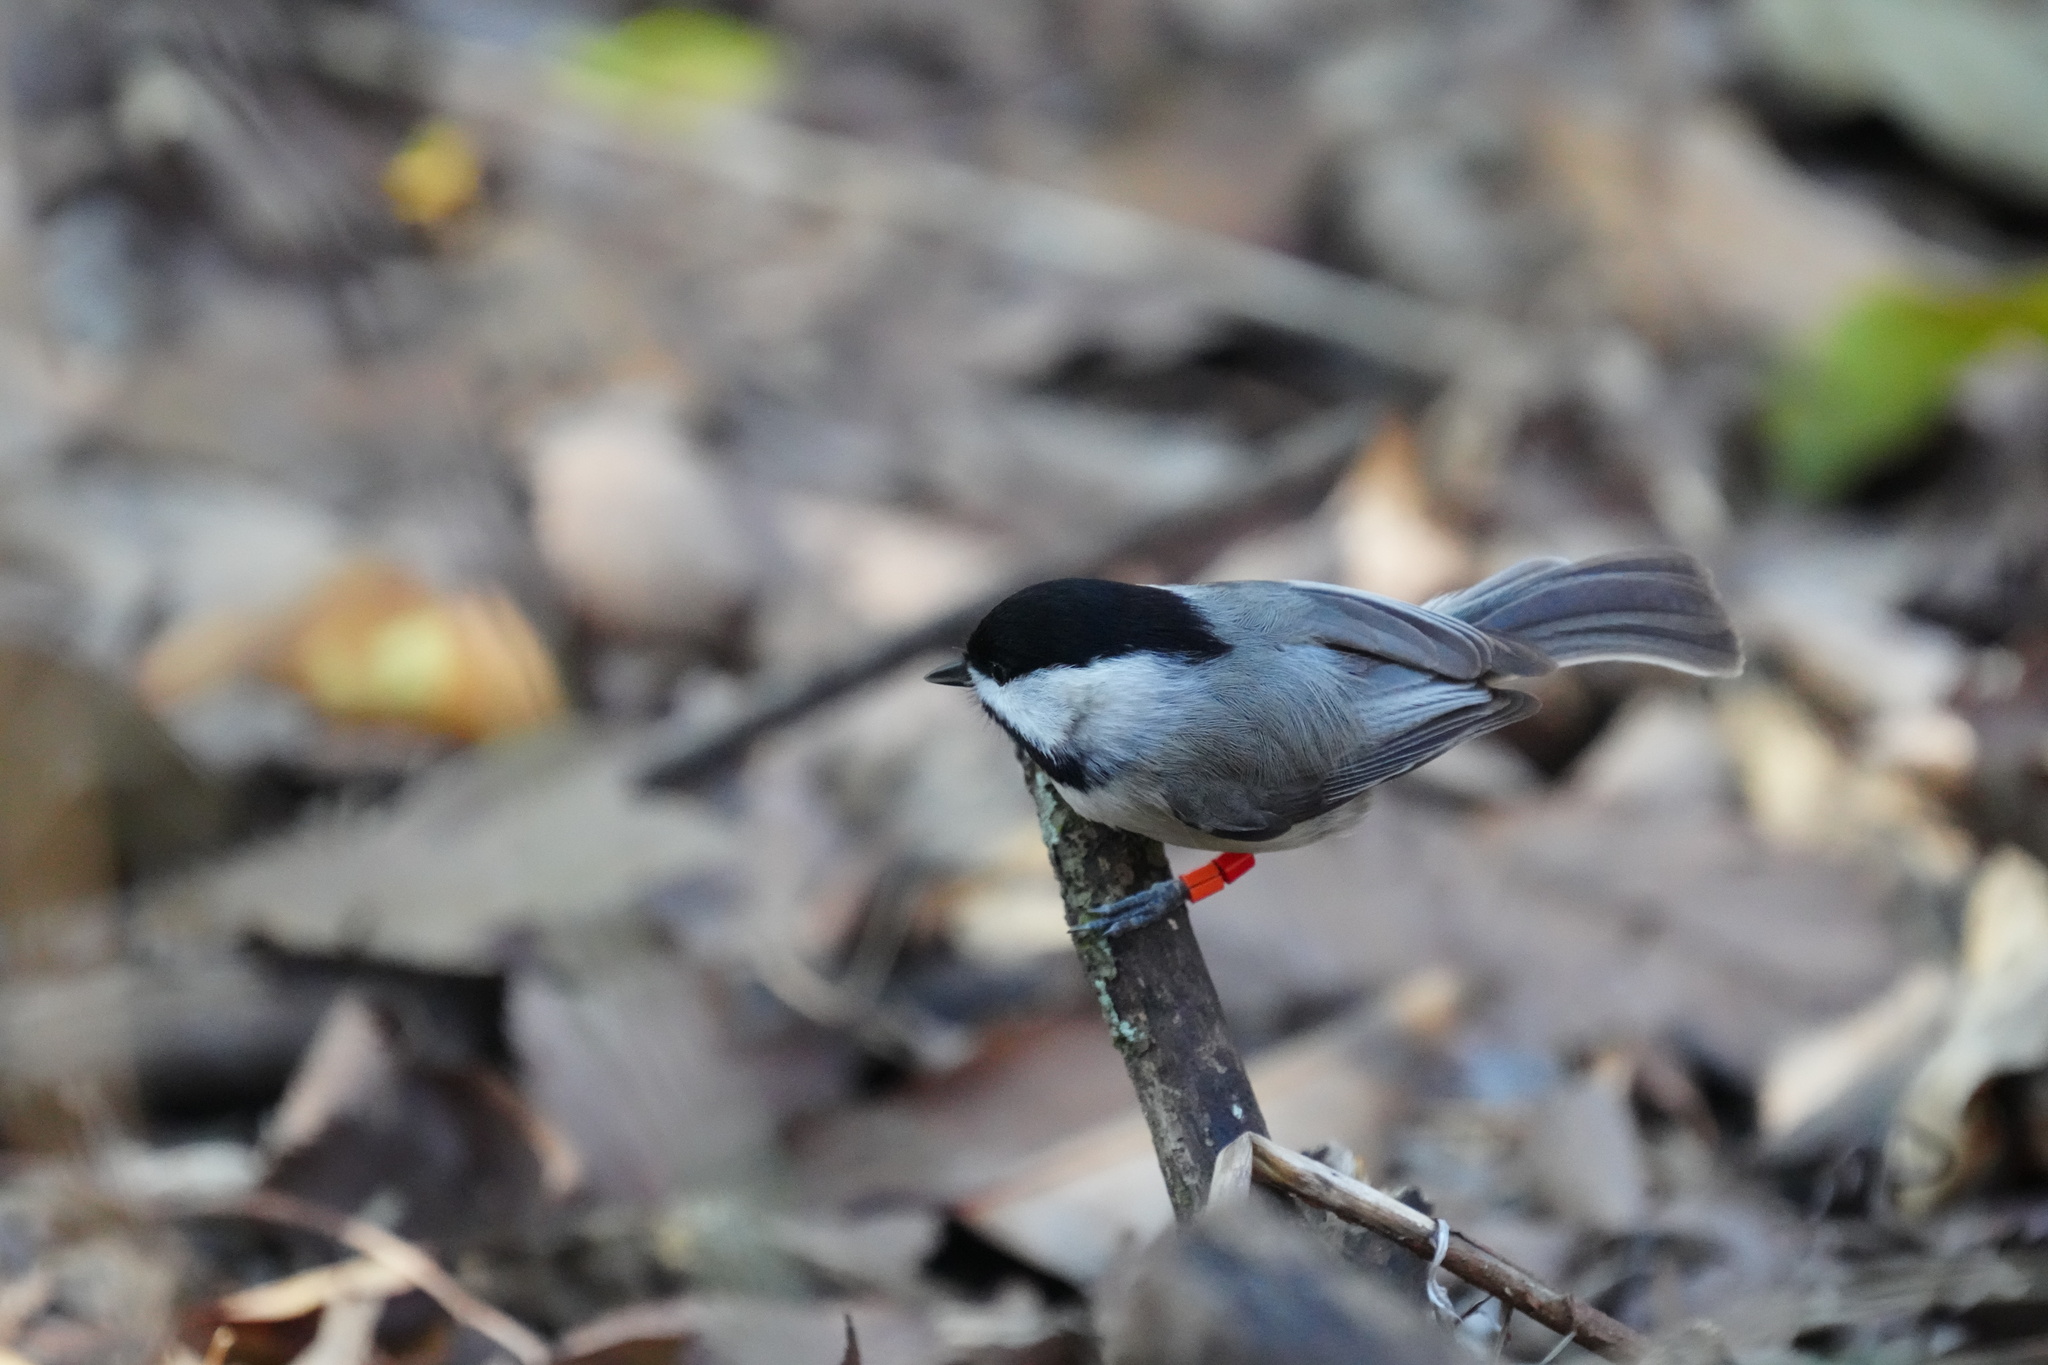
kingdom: Animalia
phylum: Chordata
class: Aves
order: Passeriformes
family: Paridae
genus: Poecile
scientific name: Poecile carolinensis
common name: Carolina chickadee
